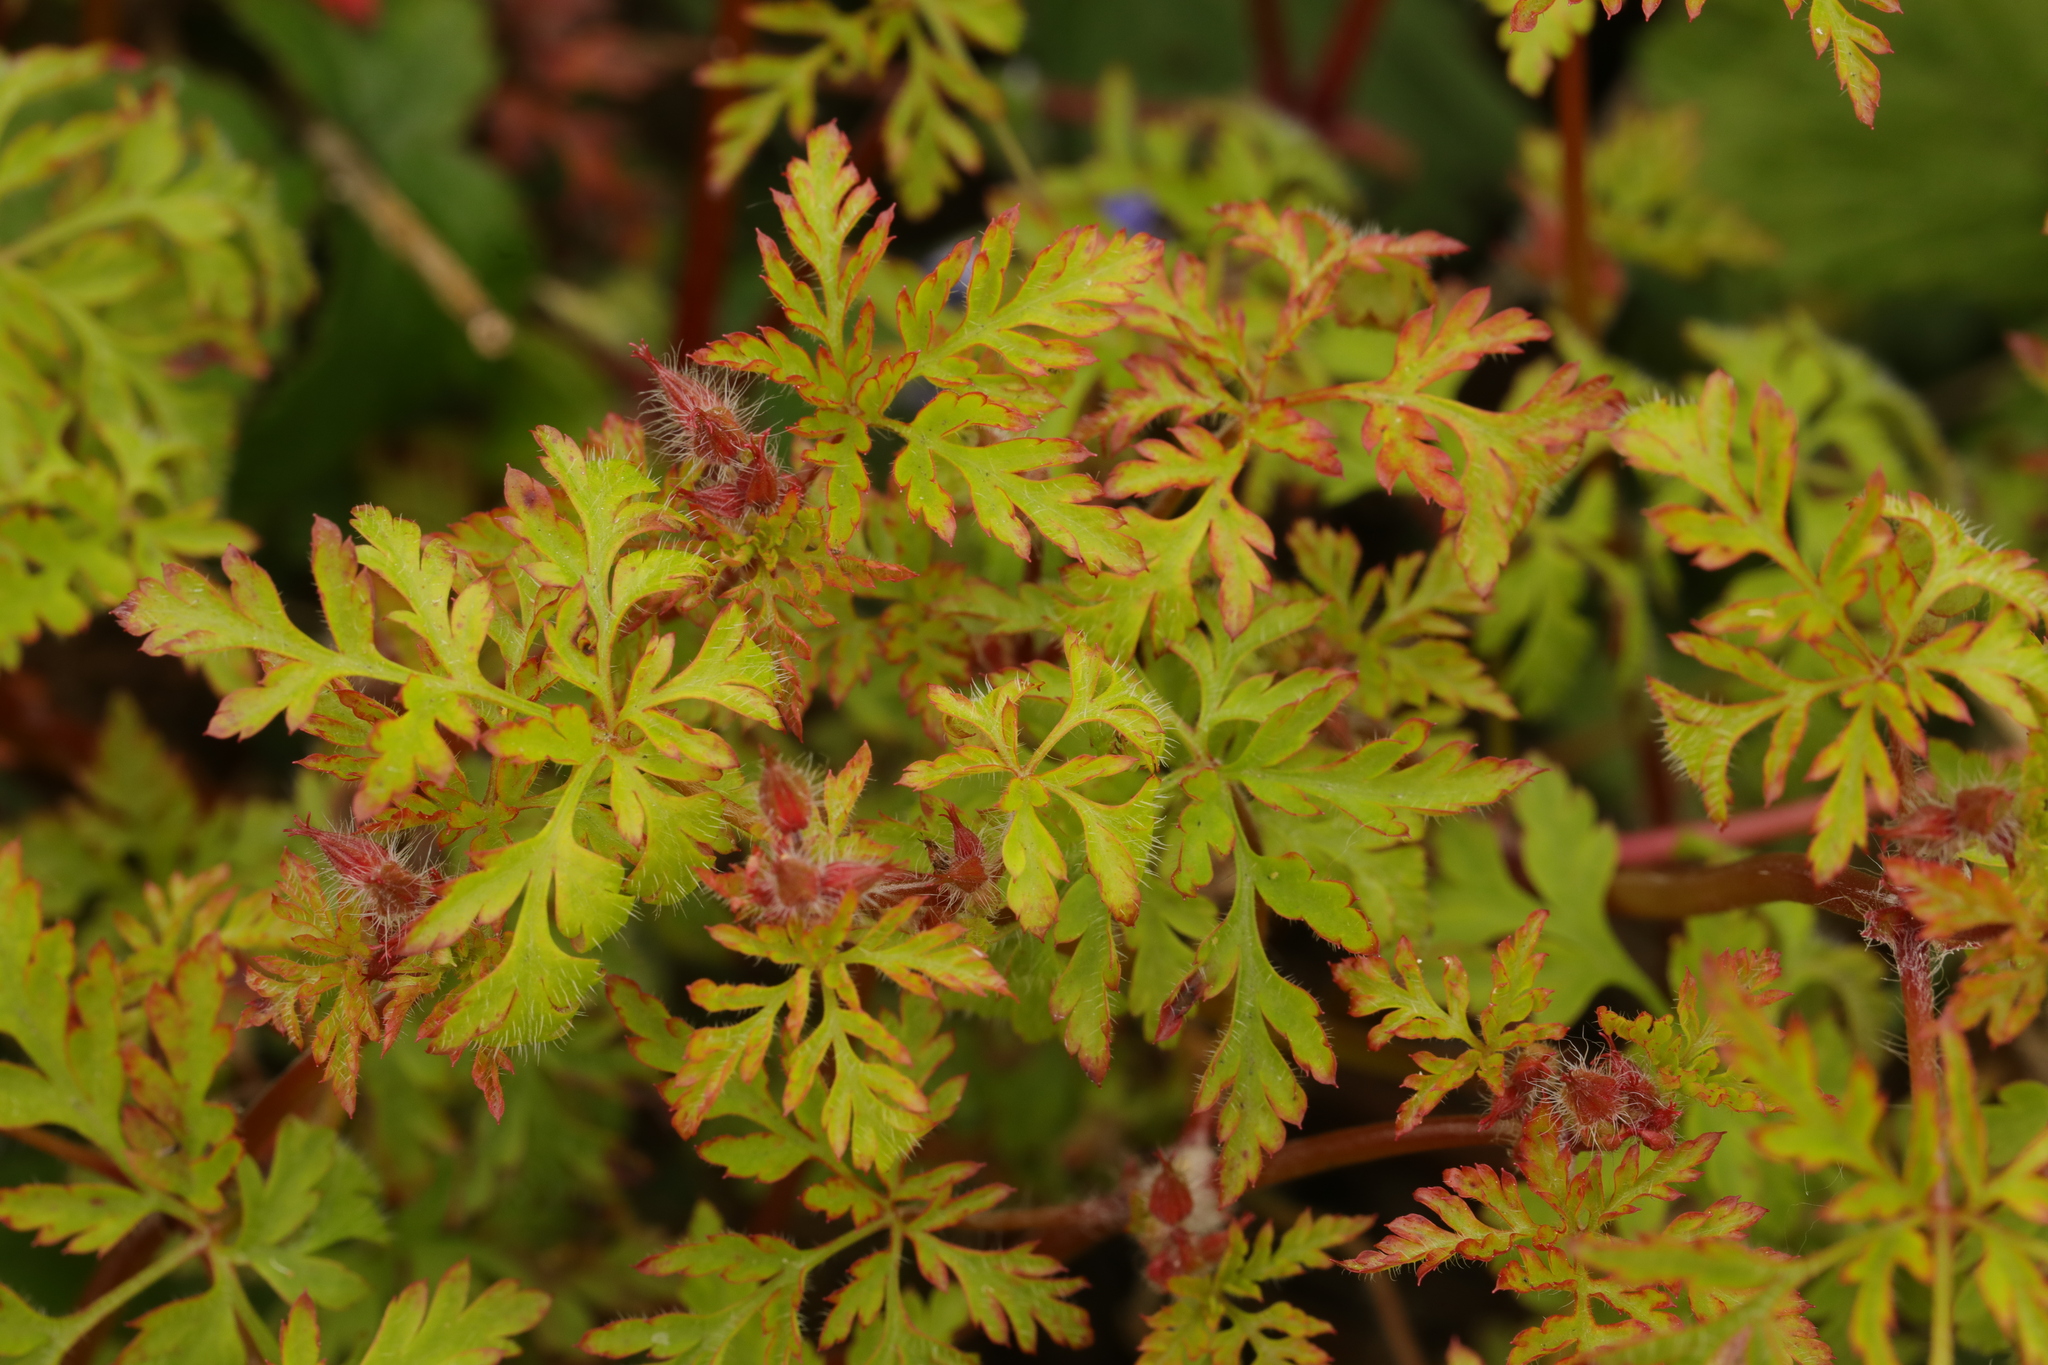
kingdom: Plantae
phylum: Tracheophyta
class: Magnoliopsida
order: Geraniales
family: Geraniaceae
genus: Geranium
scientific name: Geranium robertianum
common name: Herb-robert
